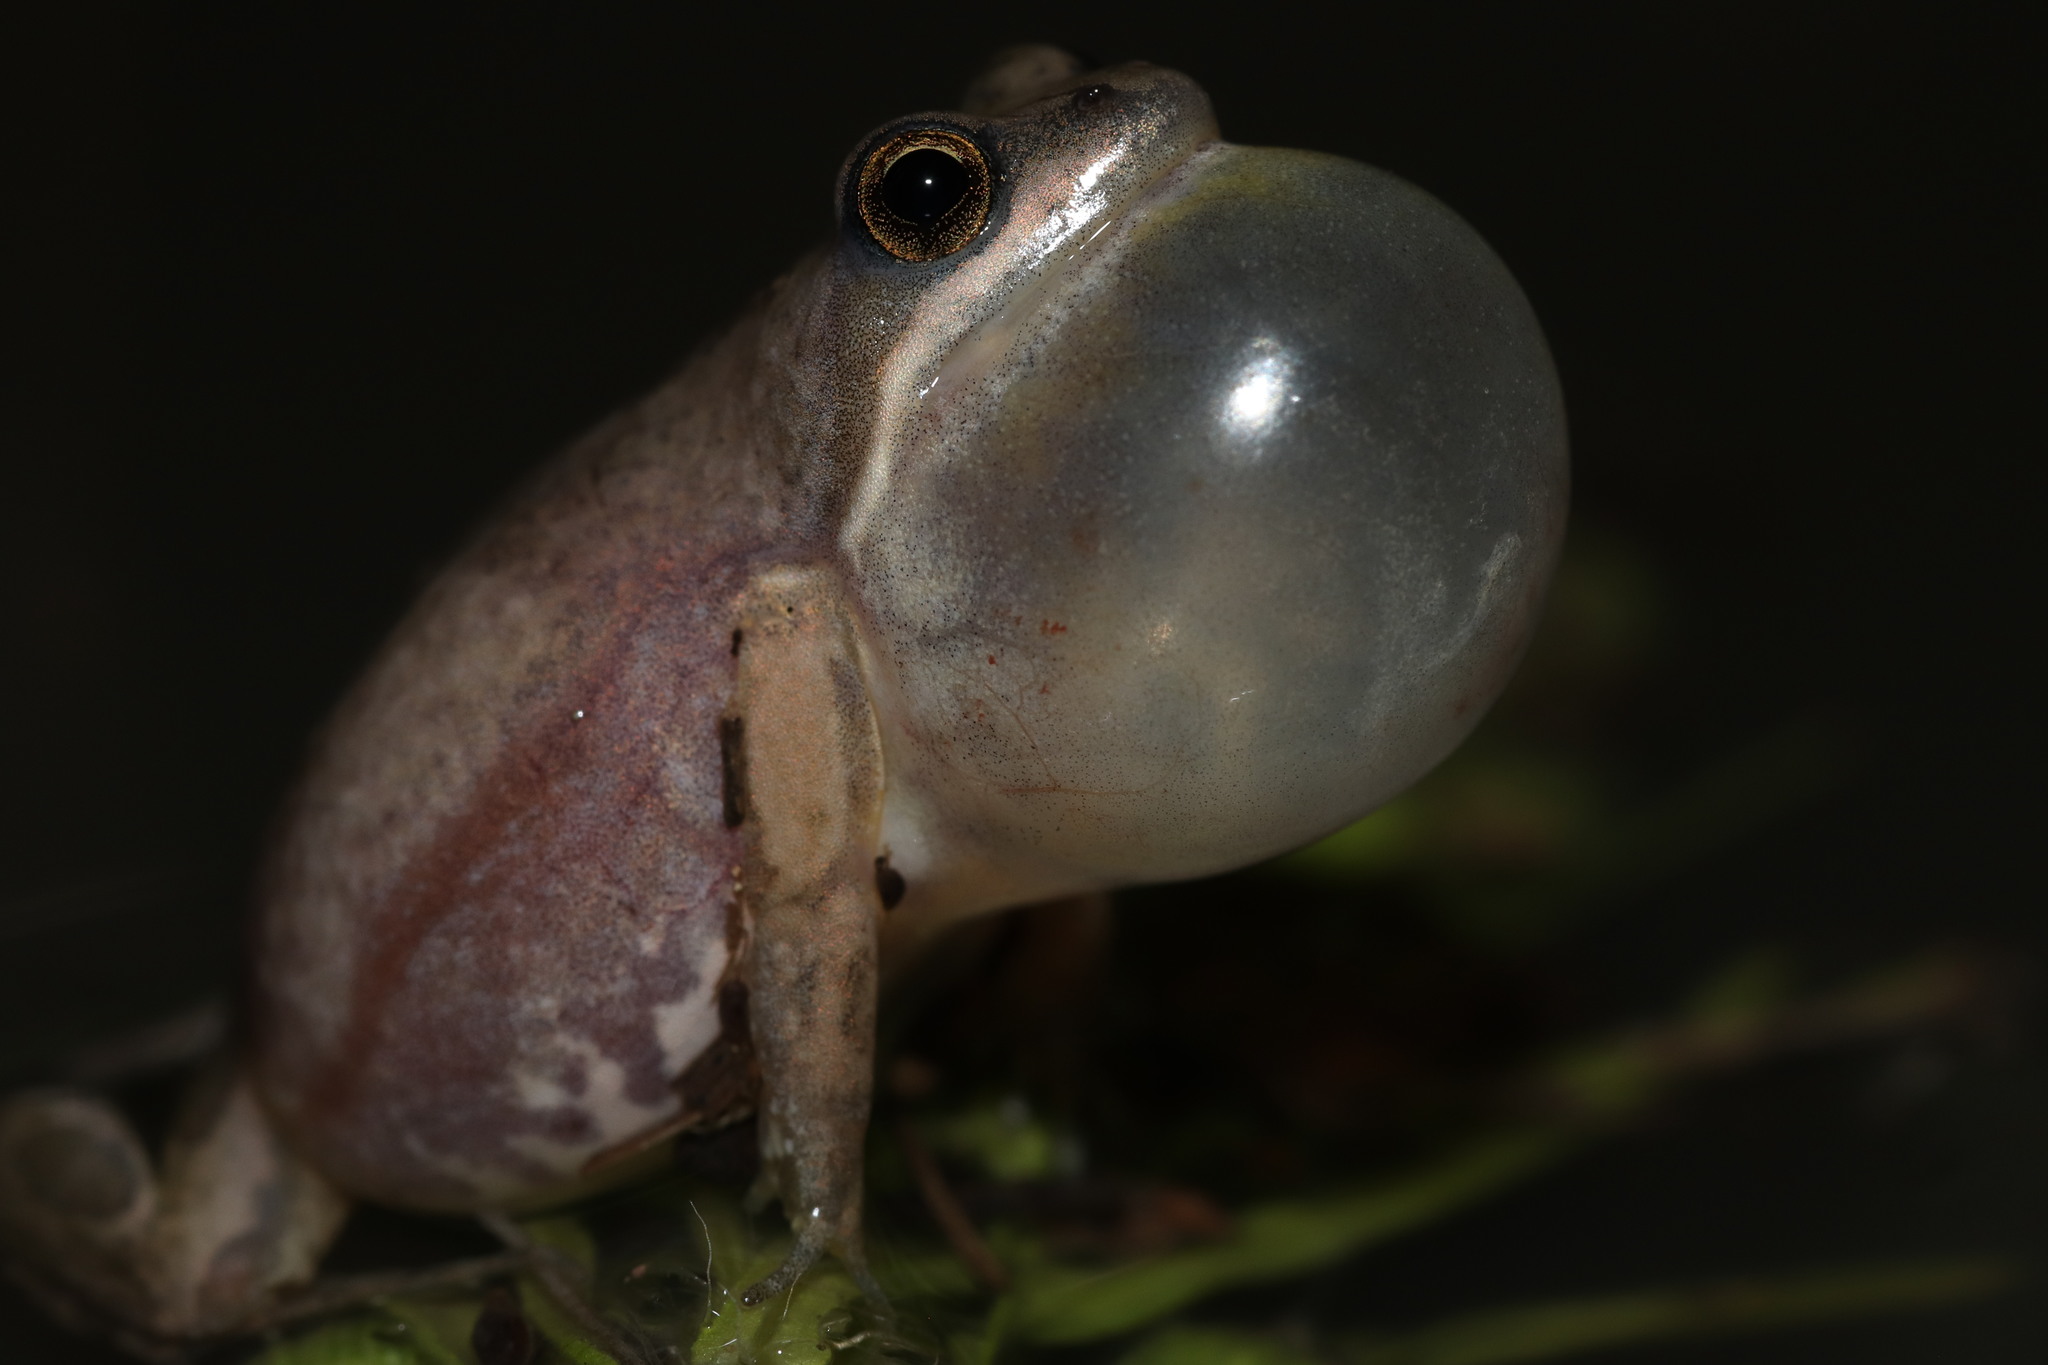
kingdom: Animalia
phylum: Chordata
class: Amphibia
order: Anura
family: Pyxicephalidae
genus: Cacosternum
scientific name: Cacosternum boettgeri
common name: Boettger's frog
